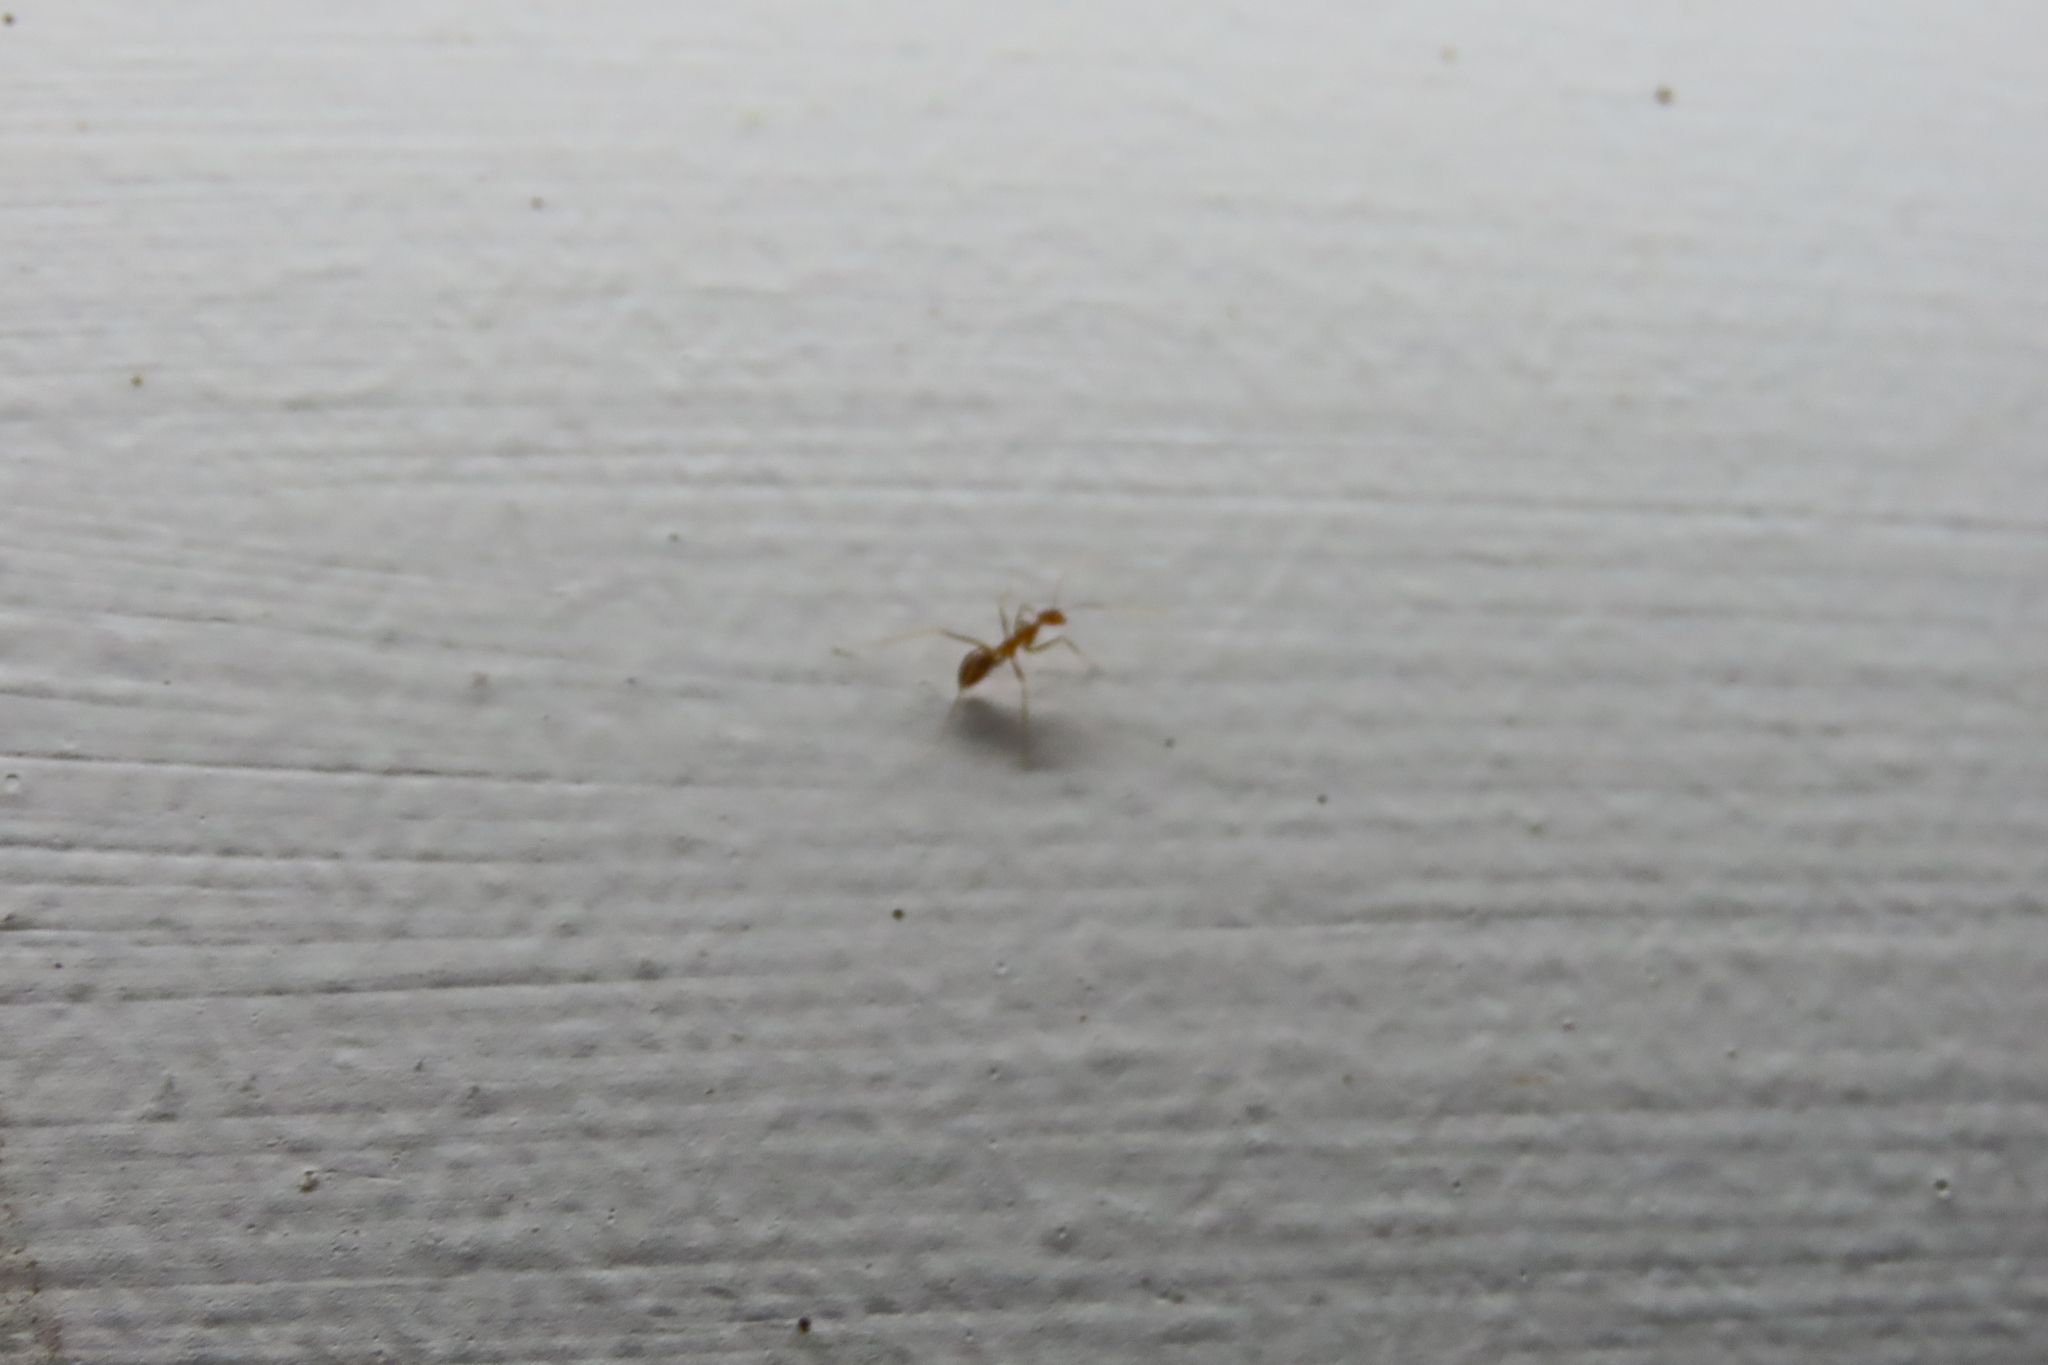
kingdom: Animalia
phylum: Arthropoda
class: Insecta
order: Hymenoptera
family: Formicidae
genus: Anoplolepis
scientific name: Anoplolepis gracilipes
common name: Ant
